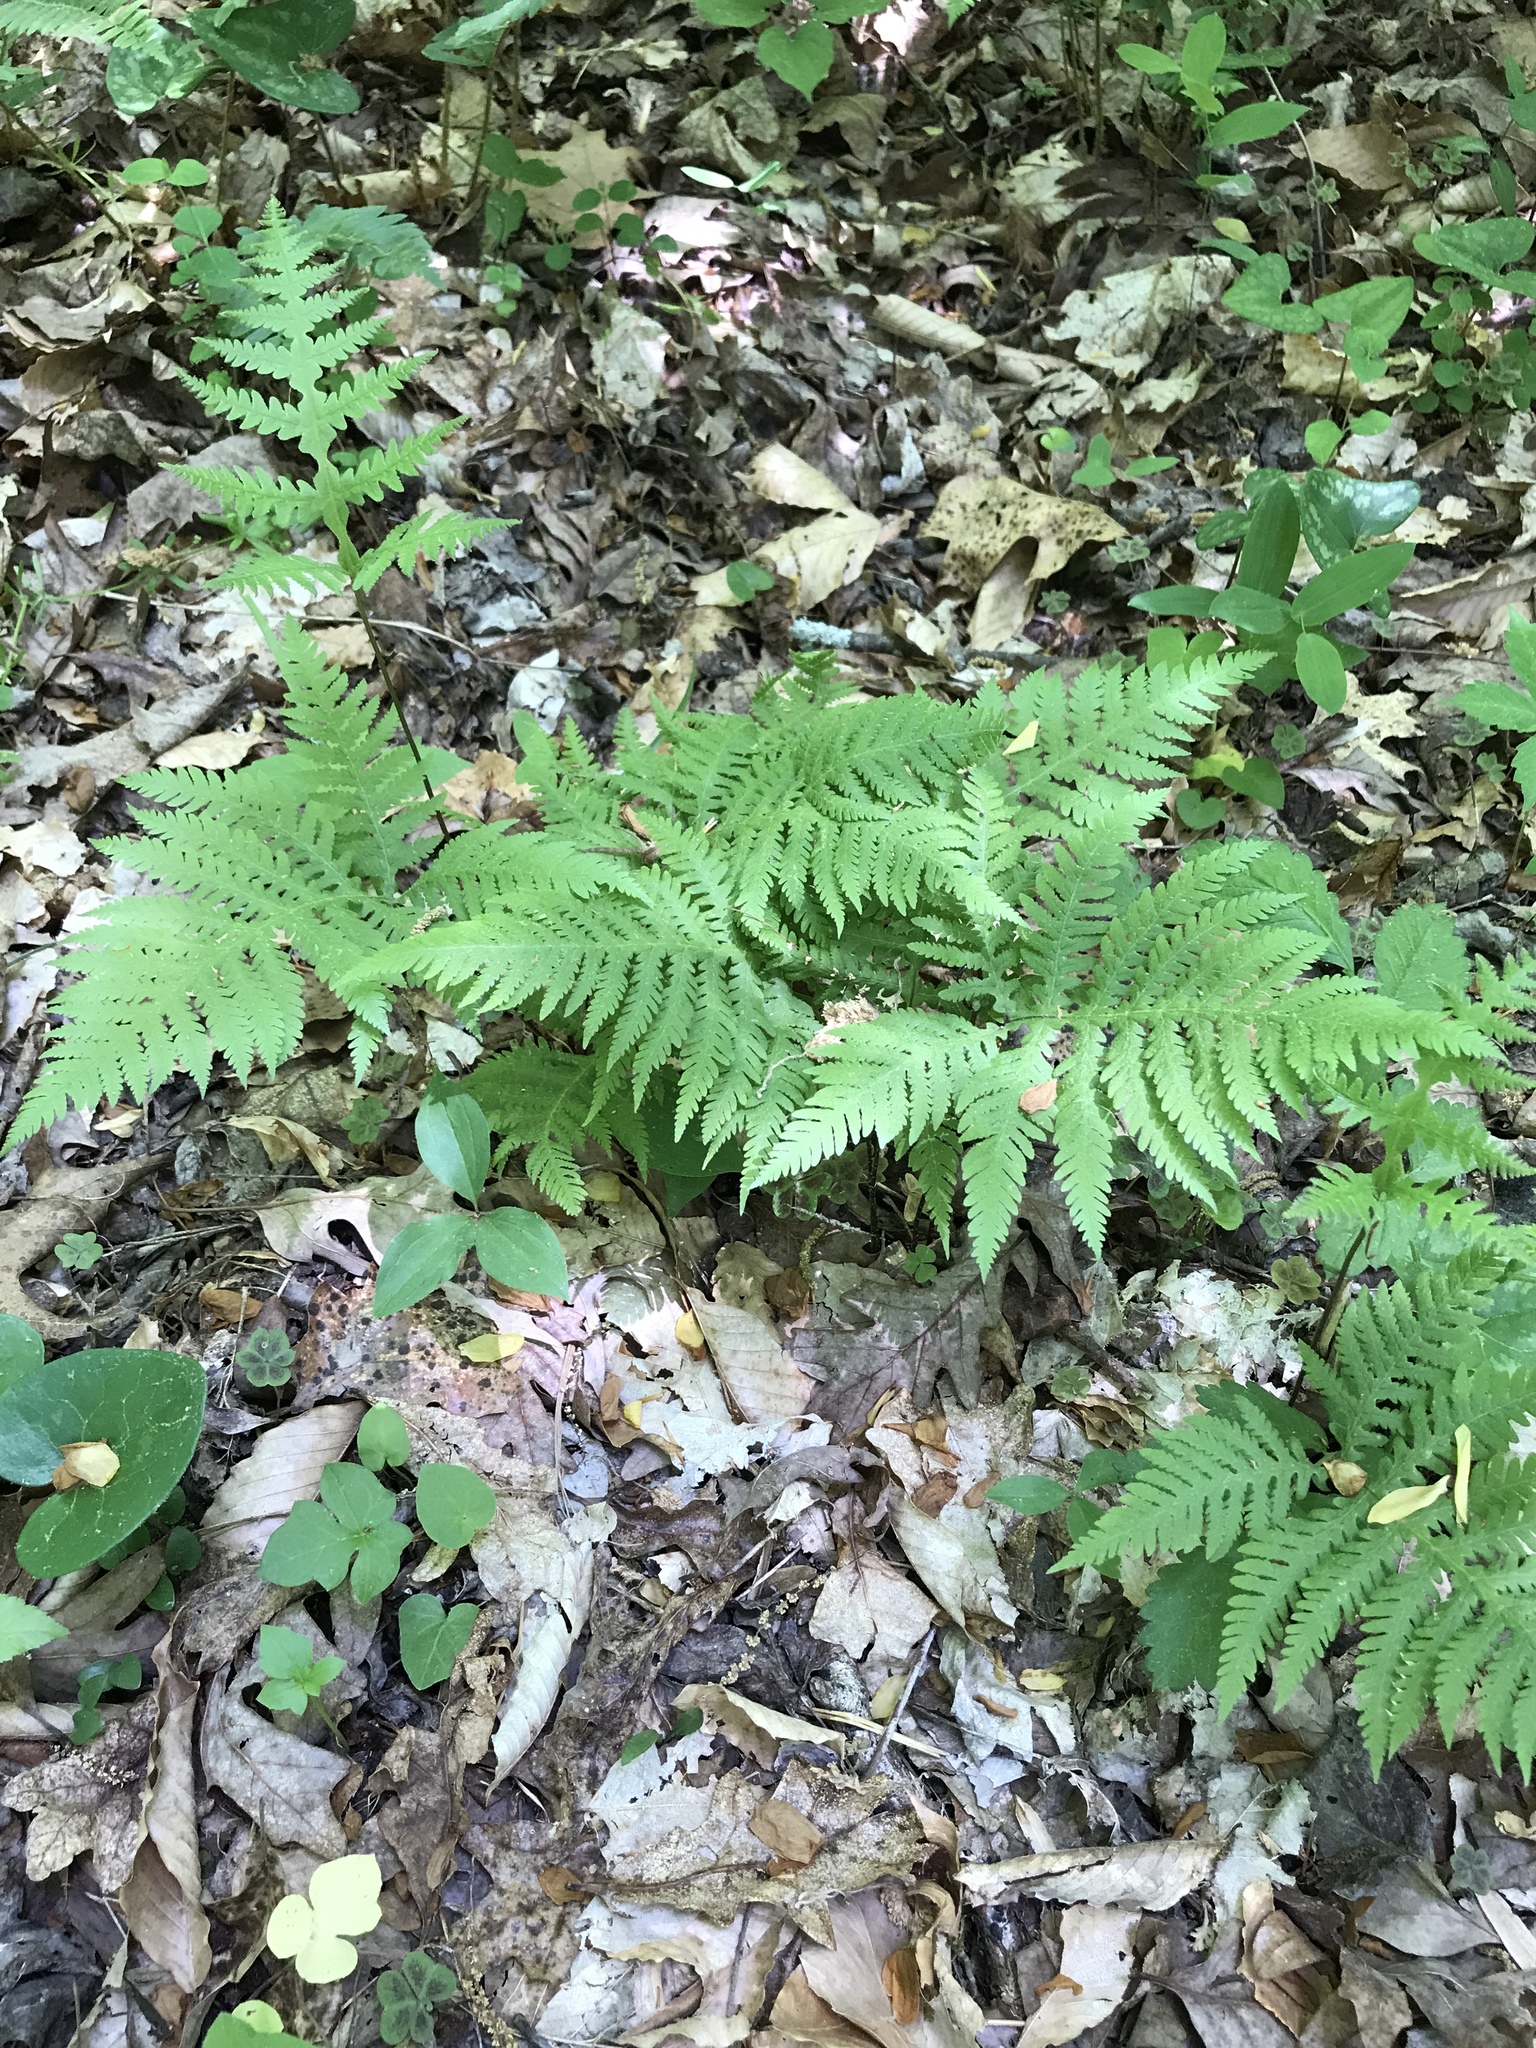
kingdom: Plantae
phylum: Tracheophyta
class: Polypodiopsida
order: Polypodiales
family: Thelypteridaceae
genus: Phegopteris
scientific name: Phegopteris hexagonoptera
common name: Broad beech fern
